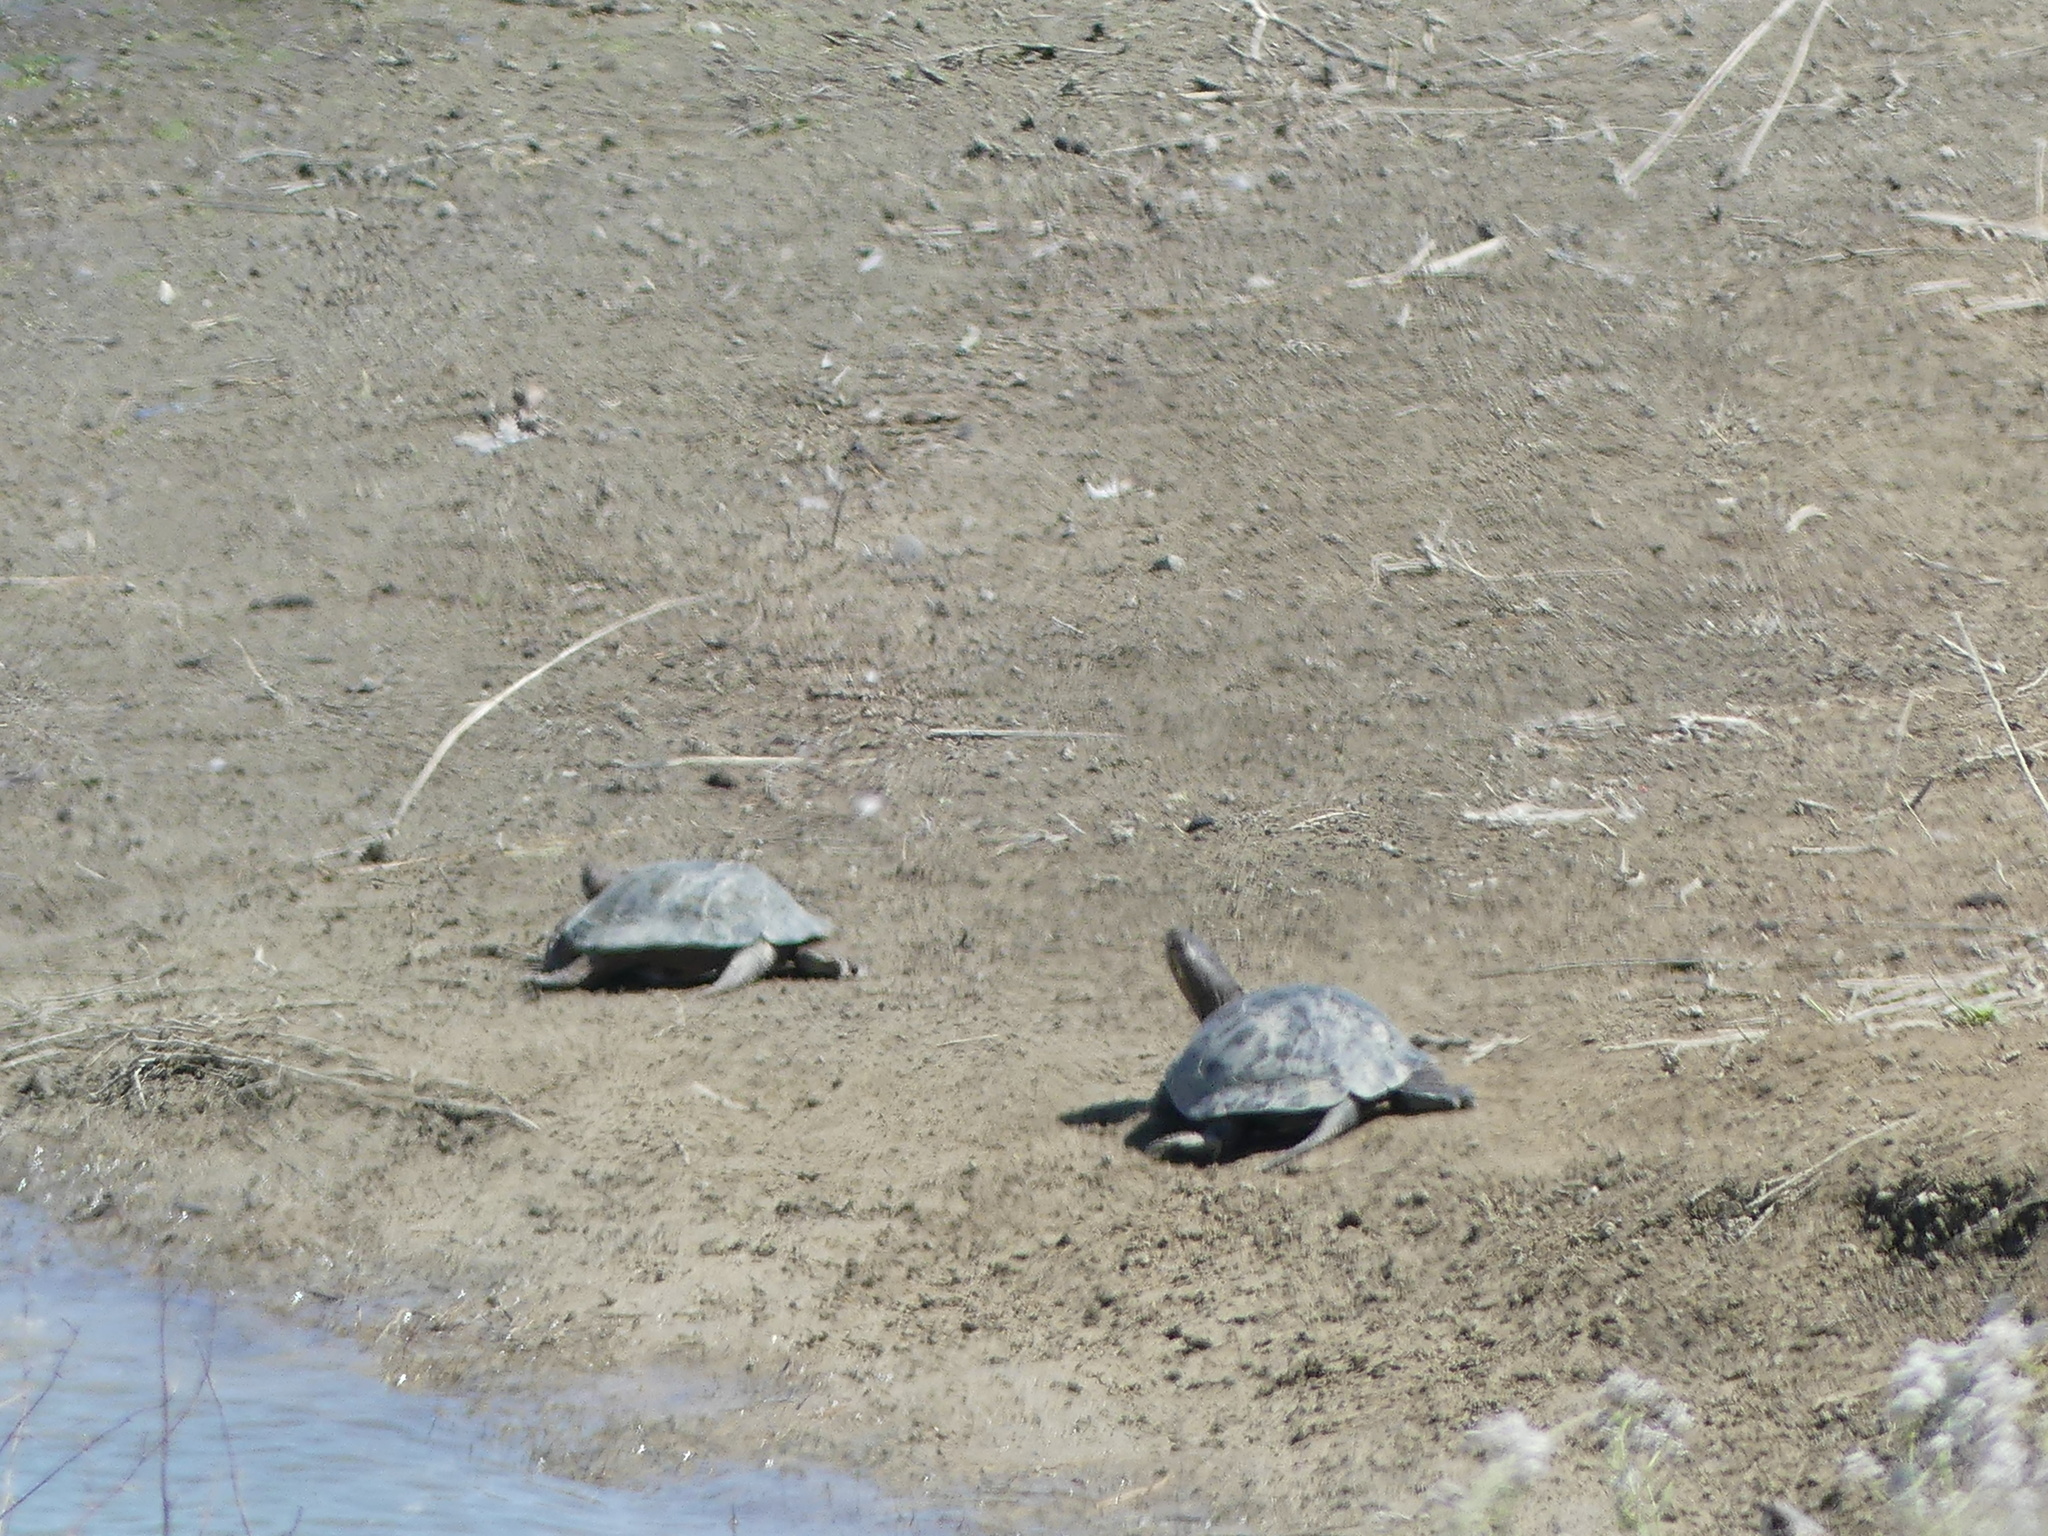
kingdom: Animalia
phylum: Chordata
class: Testudines
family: Emydidae
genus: Actinemys
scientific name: Actinemys marmorata
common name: Western pond turtle
